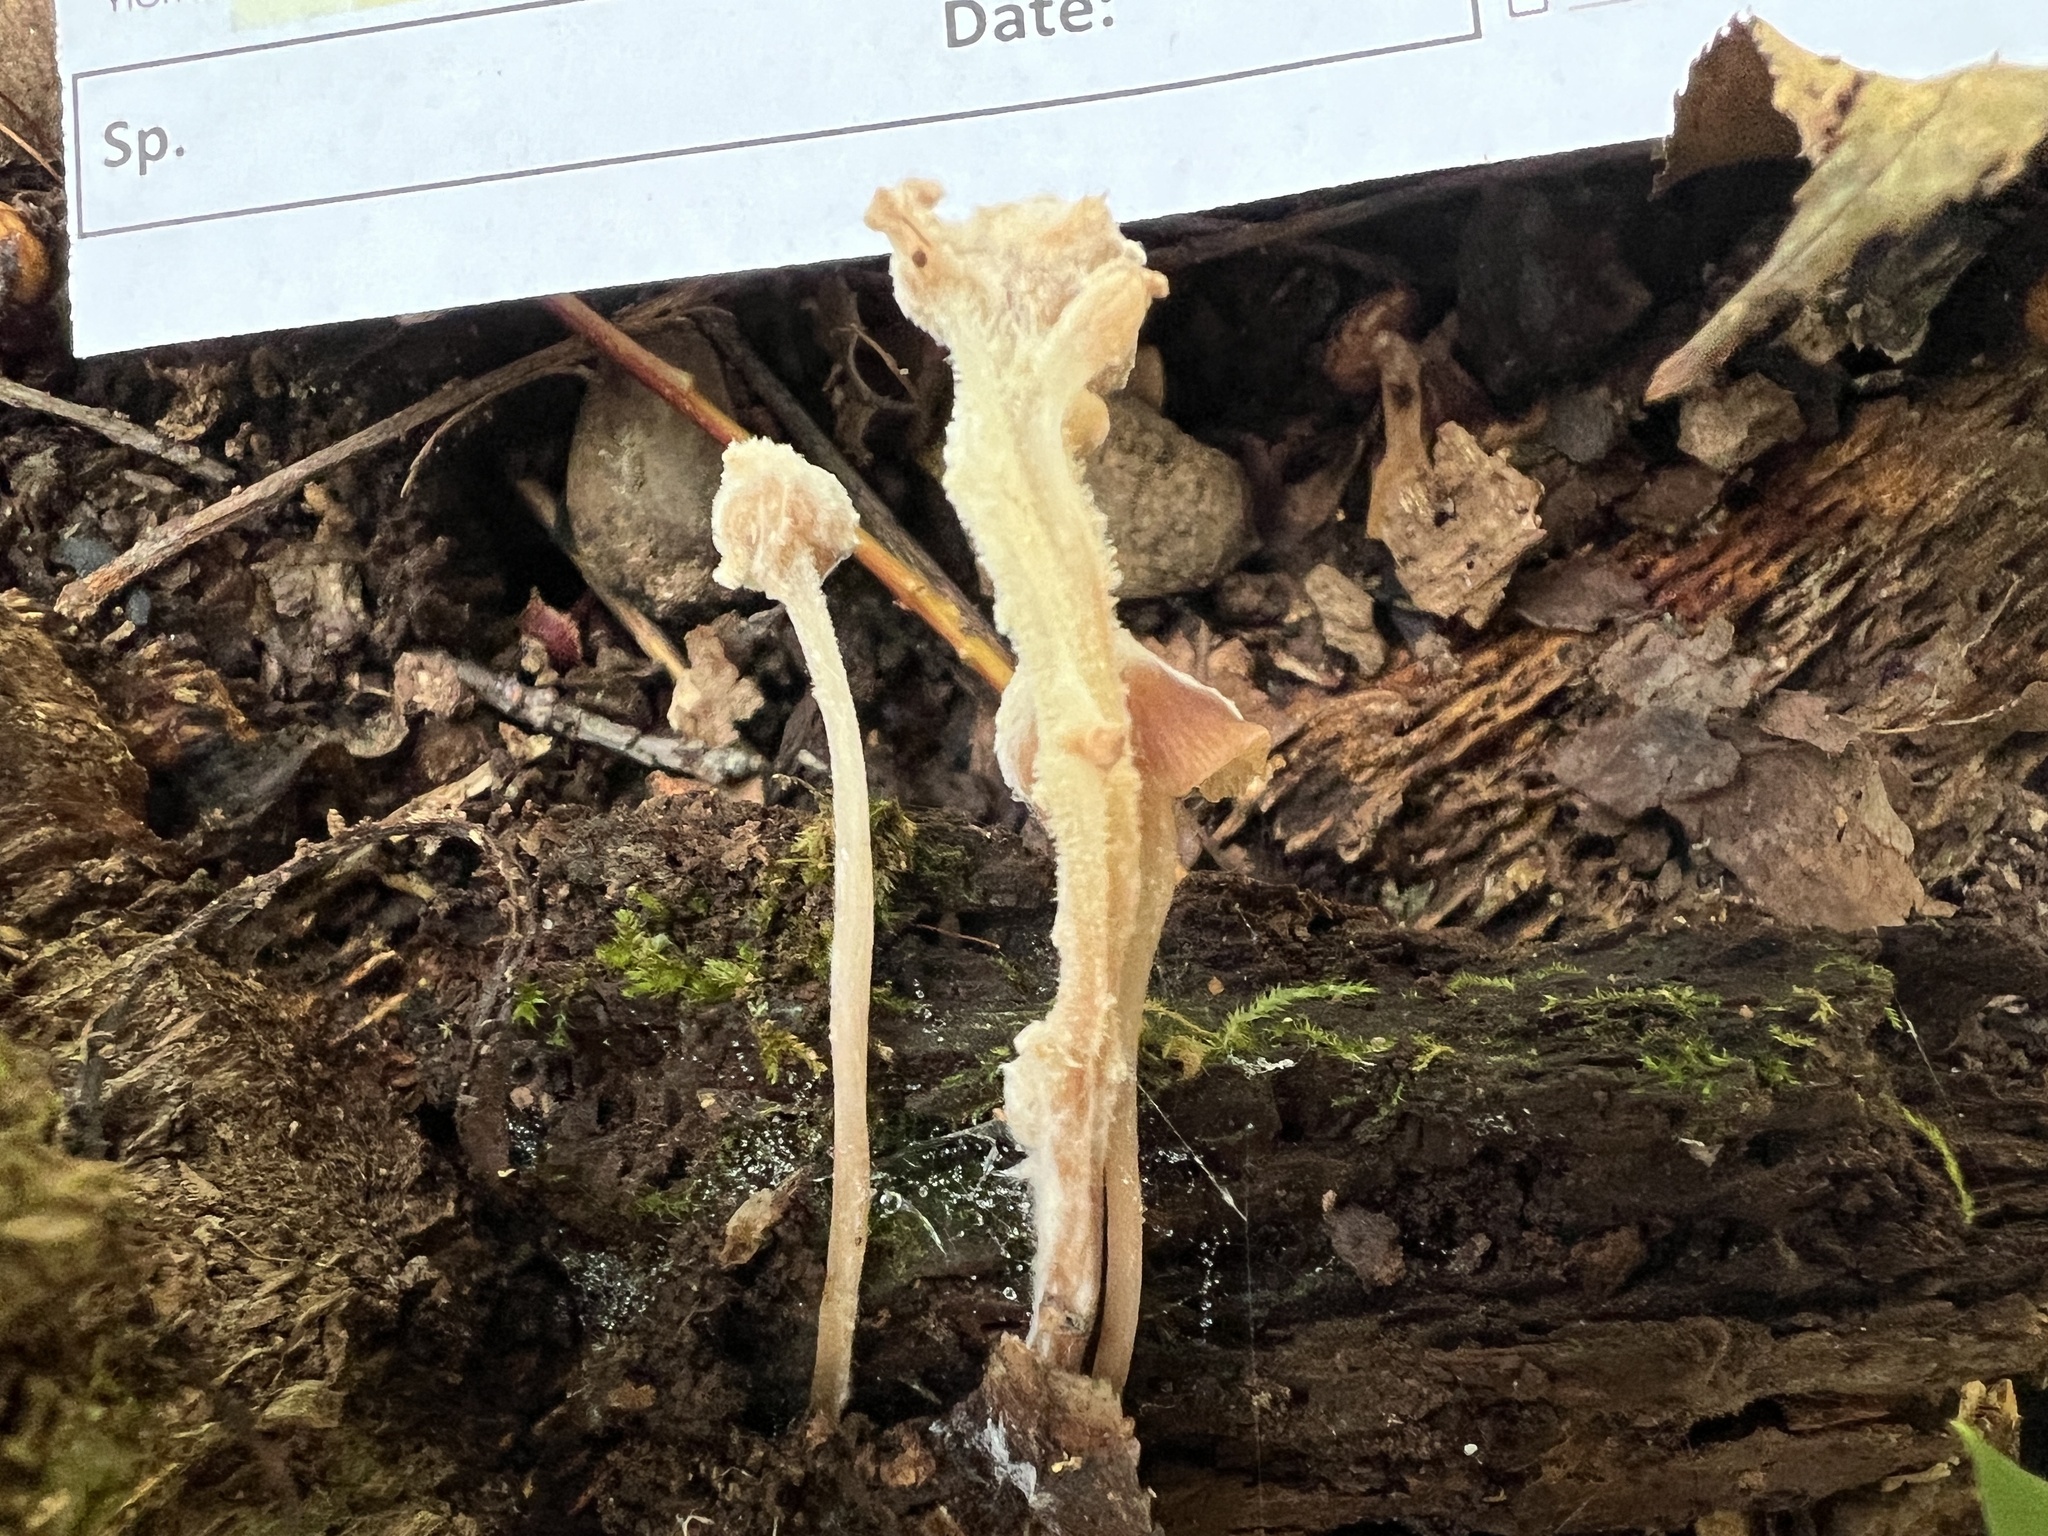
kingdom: Fungi
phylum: Basidiomycota
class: Agaricomycetes
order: Agaricales
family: Psathyrellaceae
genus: Candolleomyces
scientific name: Candolleomyces candolleanus
